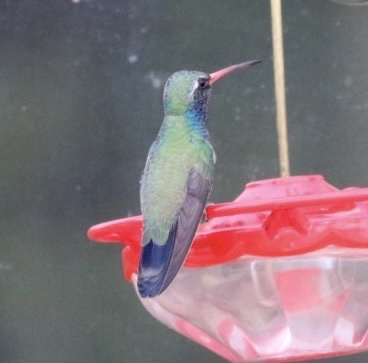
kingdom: Animalia
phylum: Chordata
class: Aves
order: Apodiformes
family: Trochilidae
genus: Cynanthus
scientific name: Cynanthus latirostris
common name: Broad-billed hummingbird
